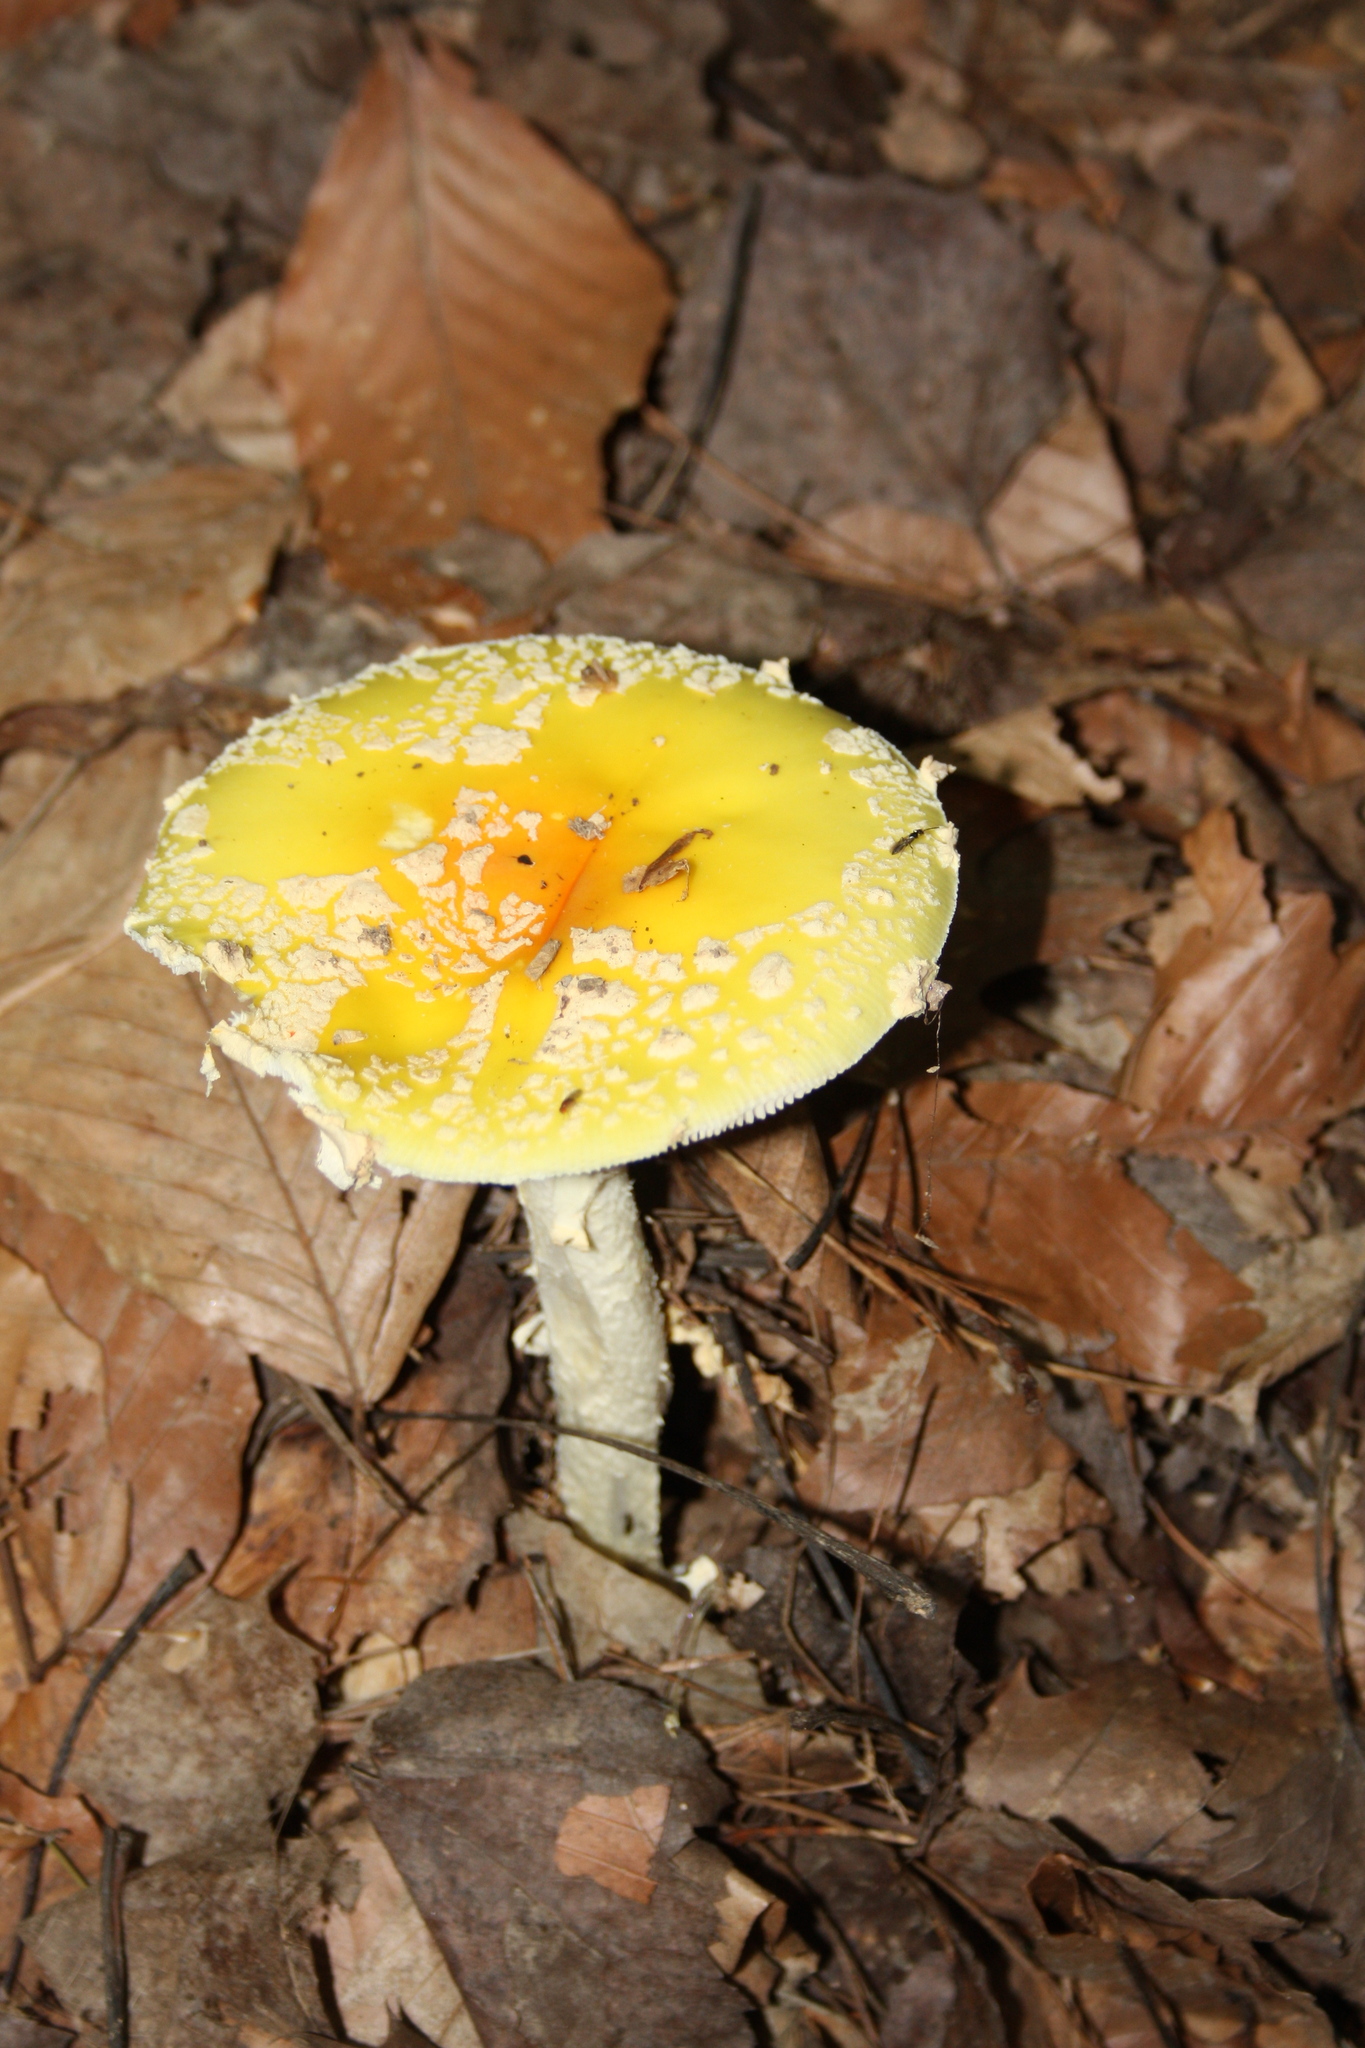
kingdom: Fungi
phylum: Basidiomycota
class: Agaricomycetes
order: Agaricales
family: Amanitaceae
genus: Amanita
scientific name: Amanita muscaria
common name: Fly agaric
